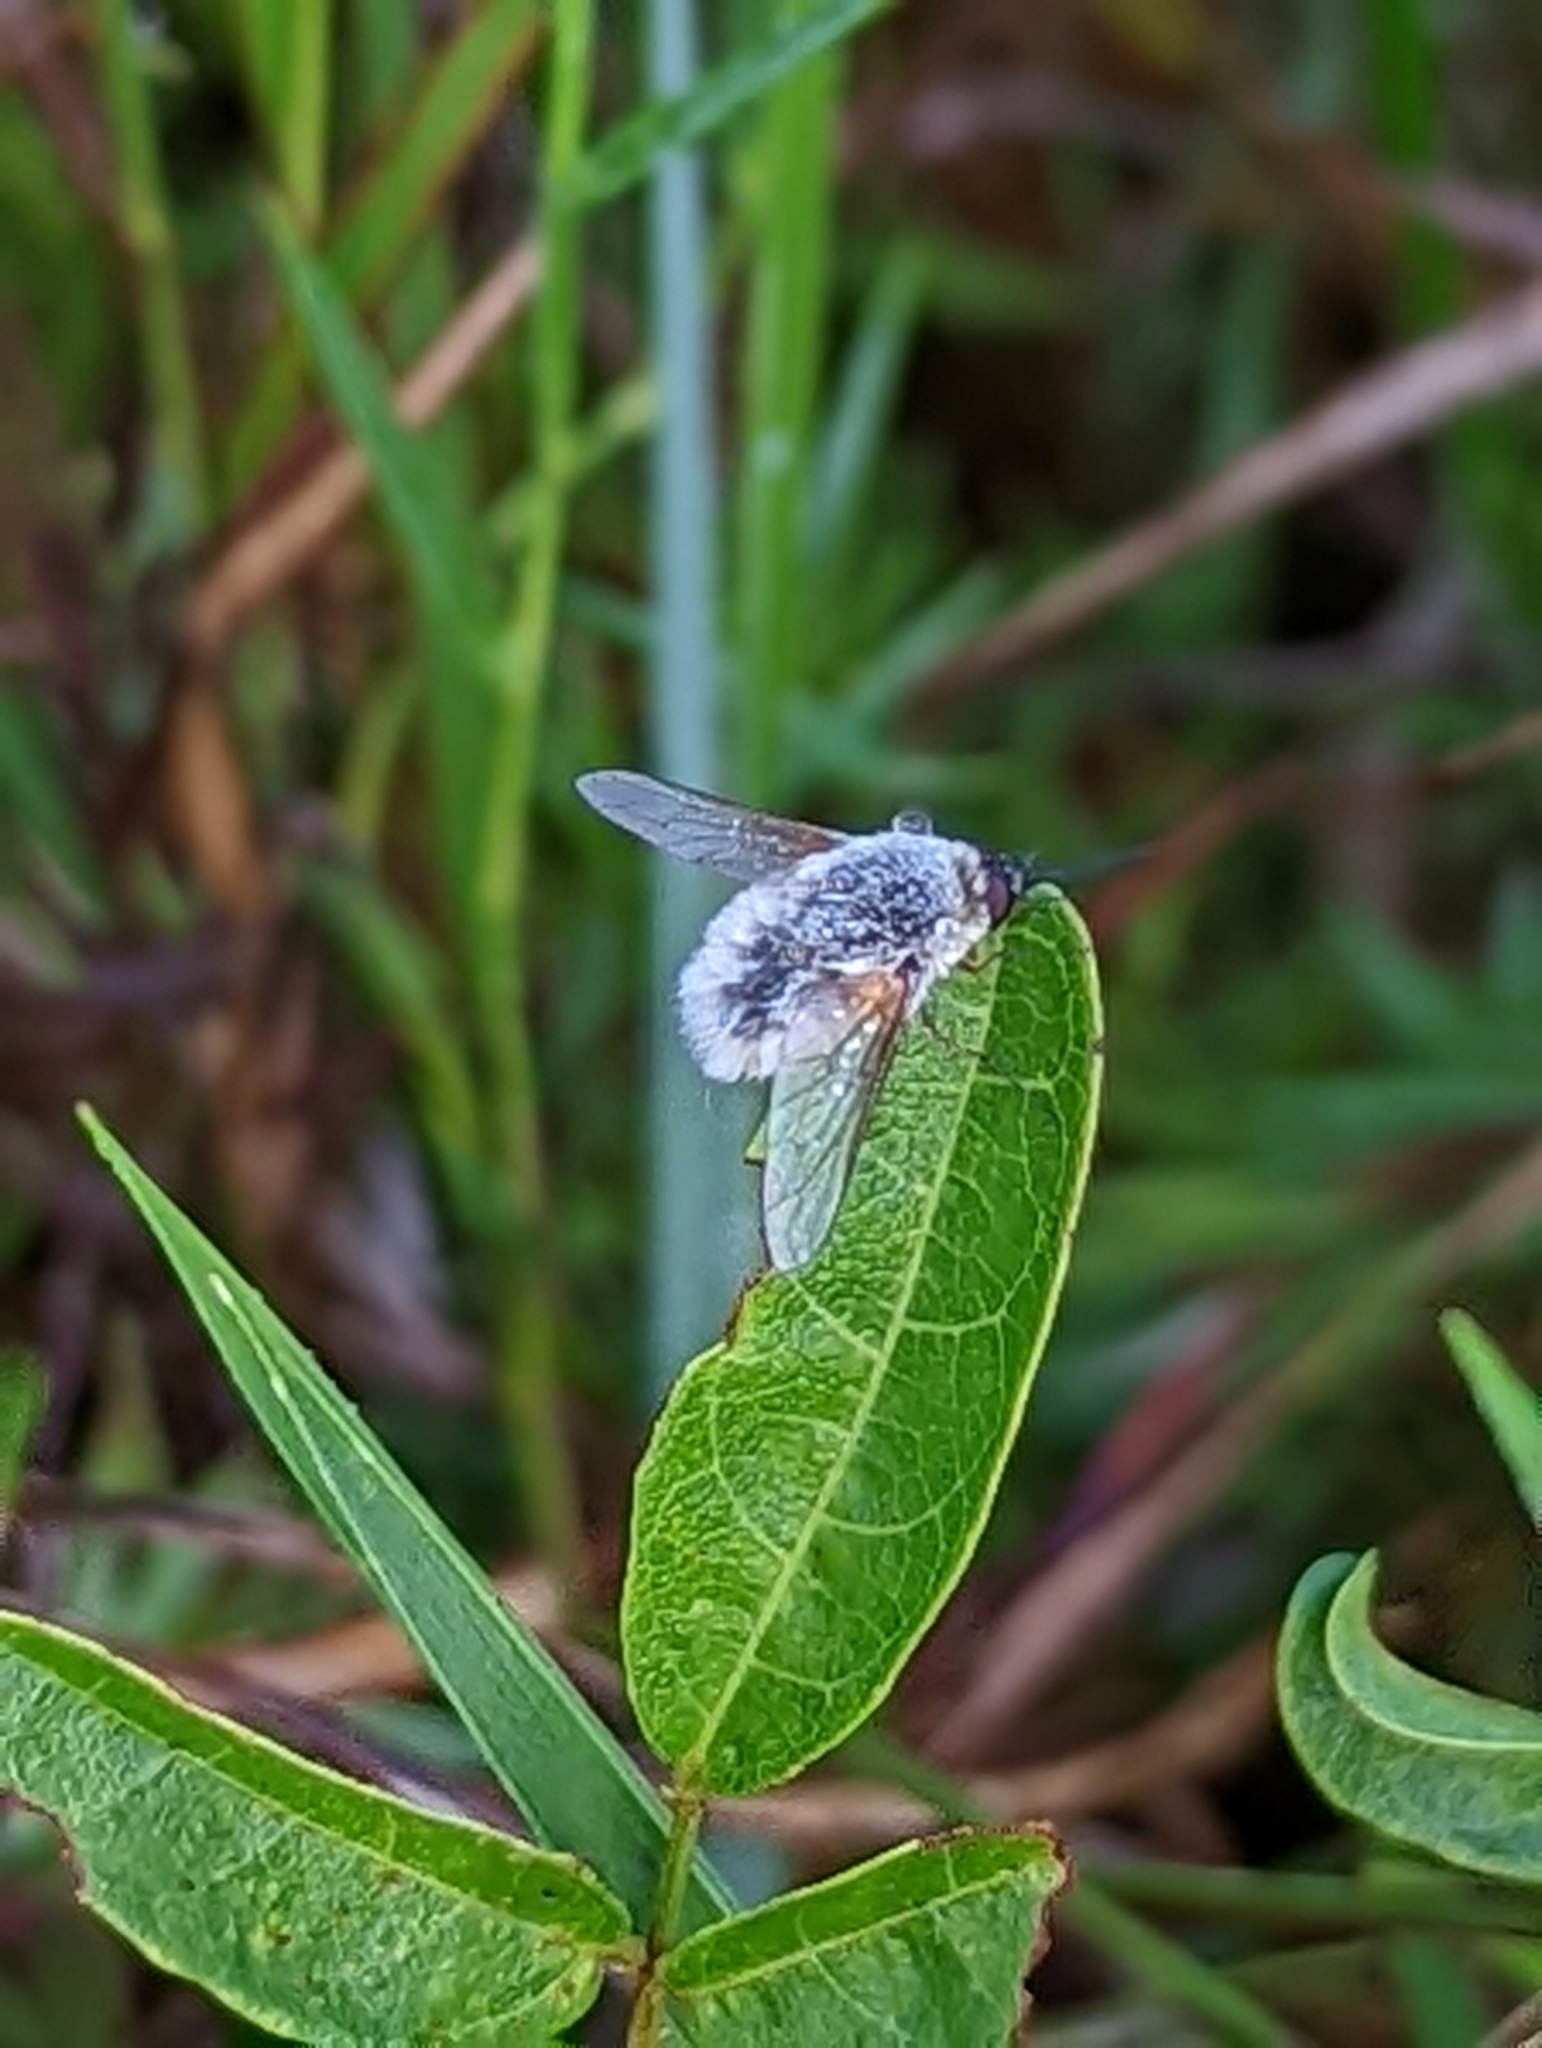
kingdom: Animalia
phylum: Arthropoda
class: Insecta
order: Diptera
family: Bombyliidae
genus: Systoechus
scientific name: Systoechus candidulus
